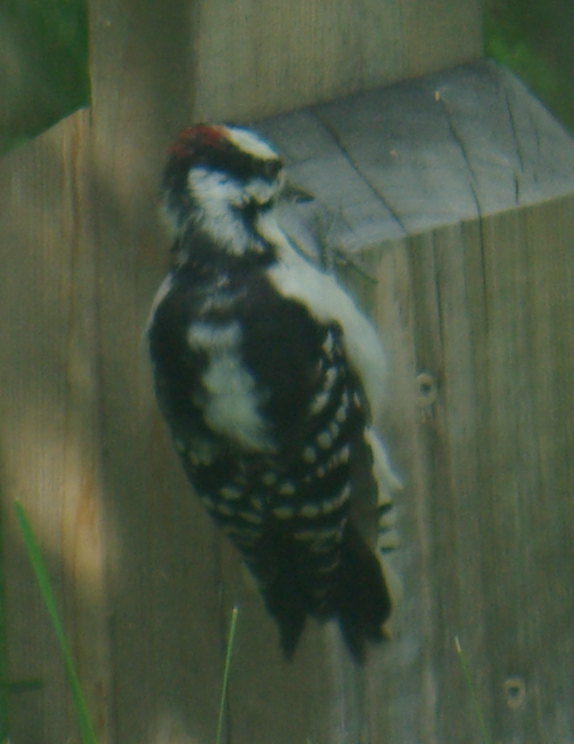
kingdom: Animalia
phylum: Chordata
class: Aves
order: Piciformes
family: Picidae
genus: Dryobates
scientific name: Dryobates pubescens
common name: Downy woodpecker
